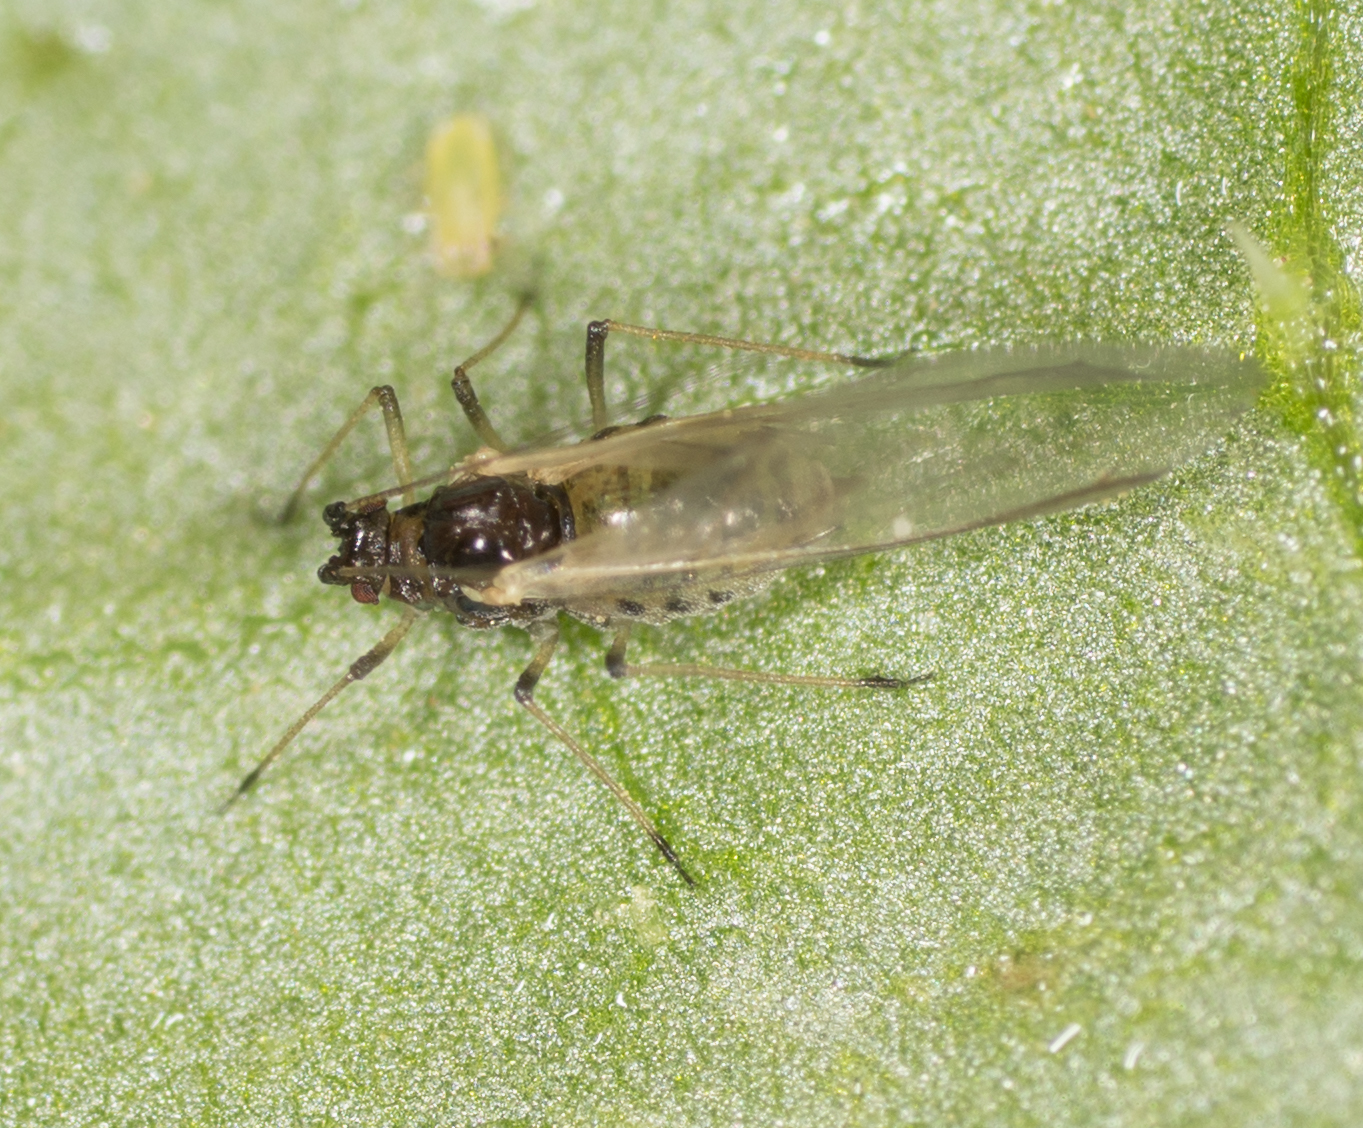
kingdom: Animalia
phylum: Arthropoda
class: Insecta
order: Hemiptera
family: Aphididae
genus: Myzus
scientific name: Myzus persicae
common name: Green peach aphid
